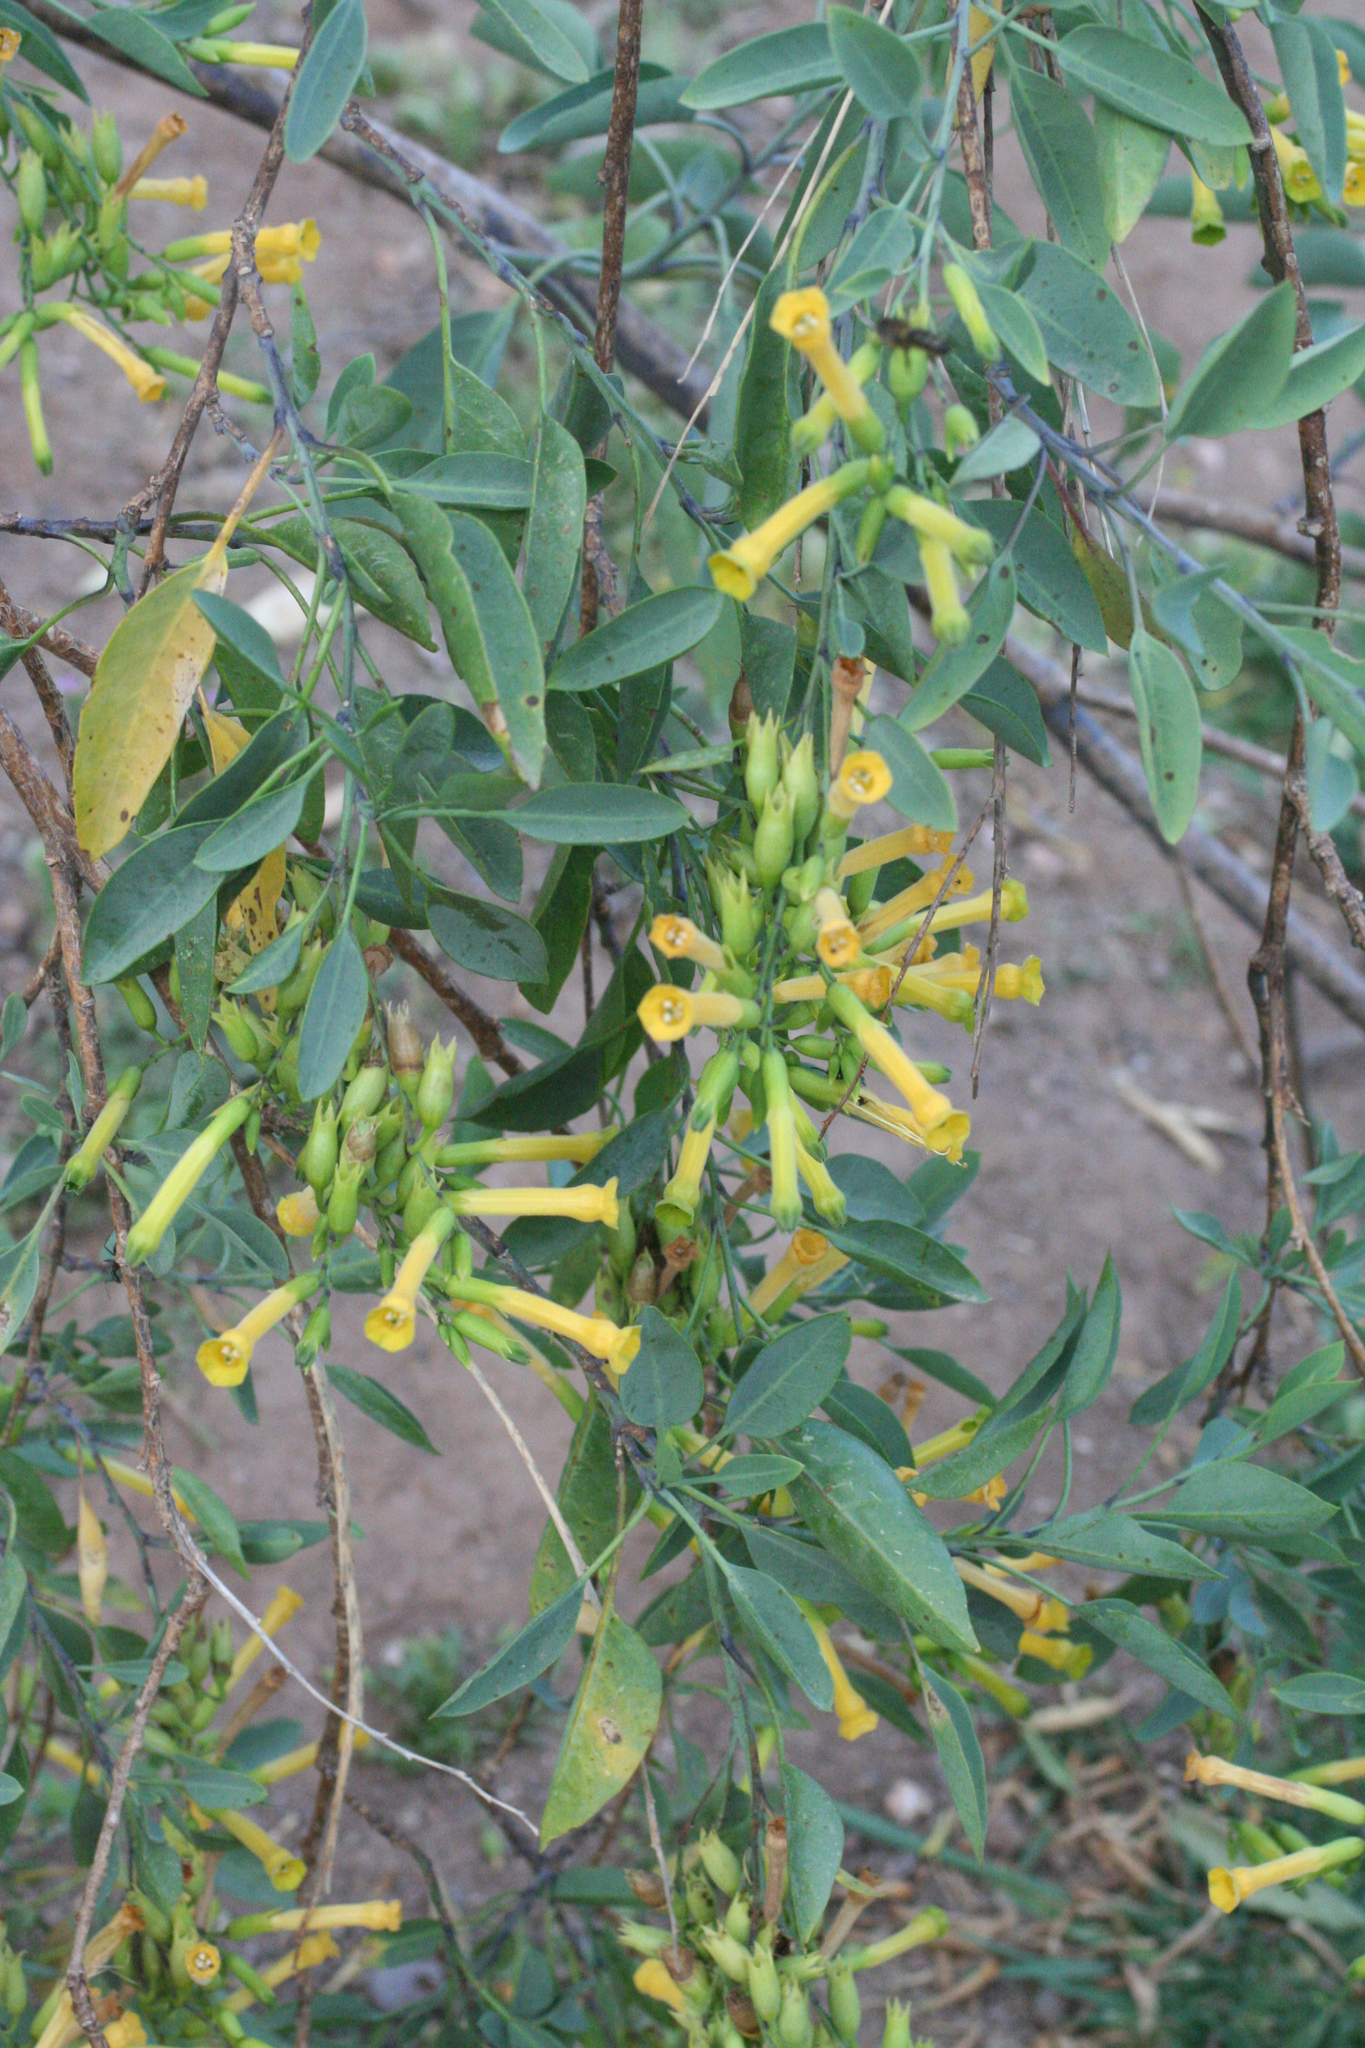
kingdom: Plantae
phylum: Tracheophyta
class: Magnoliopsida
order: Solanales
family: Solanaceae
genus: Nicotiana
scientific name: Nicotiana glauca
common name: Tree tobacco
